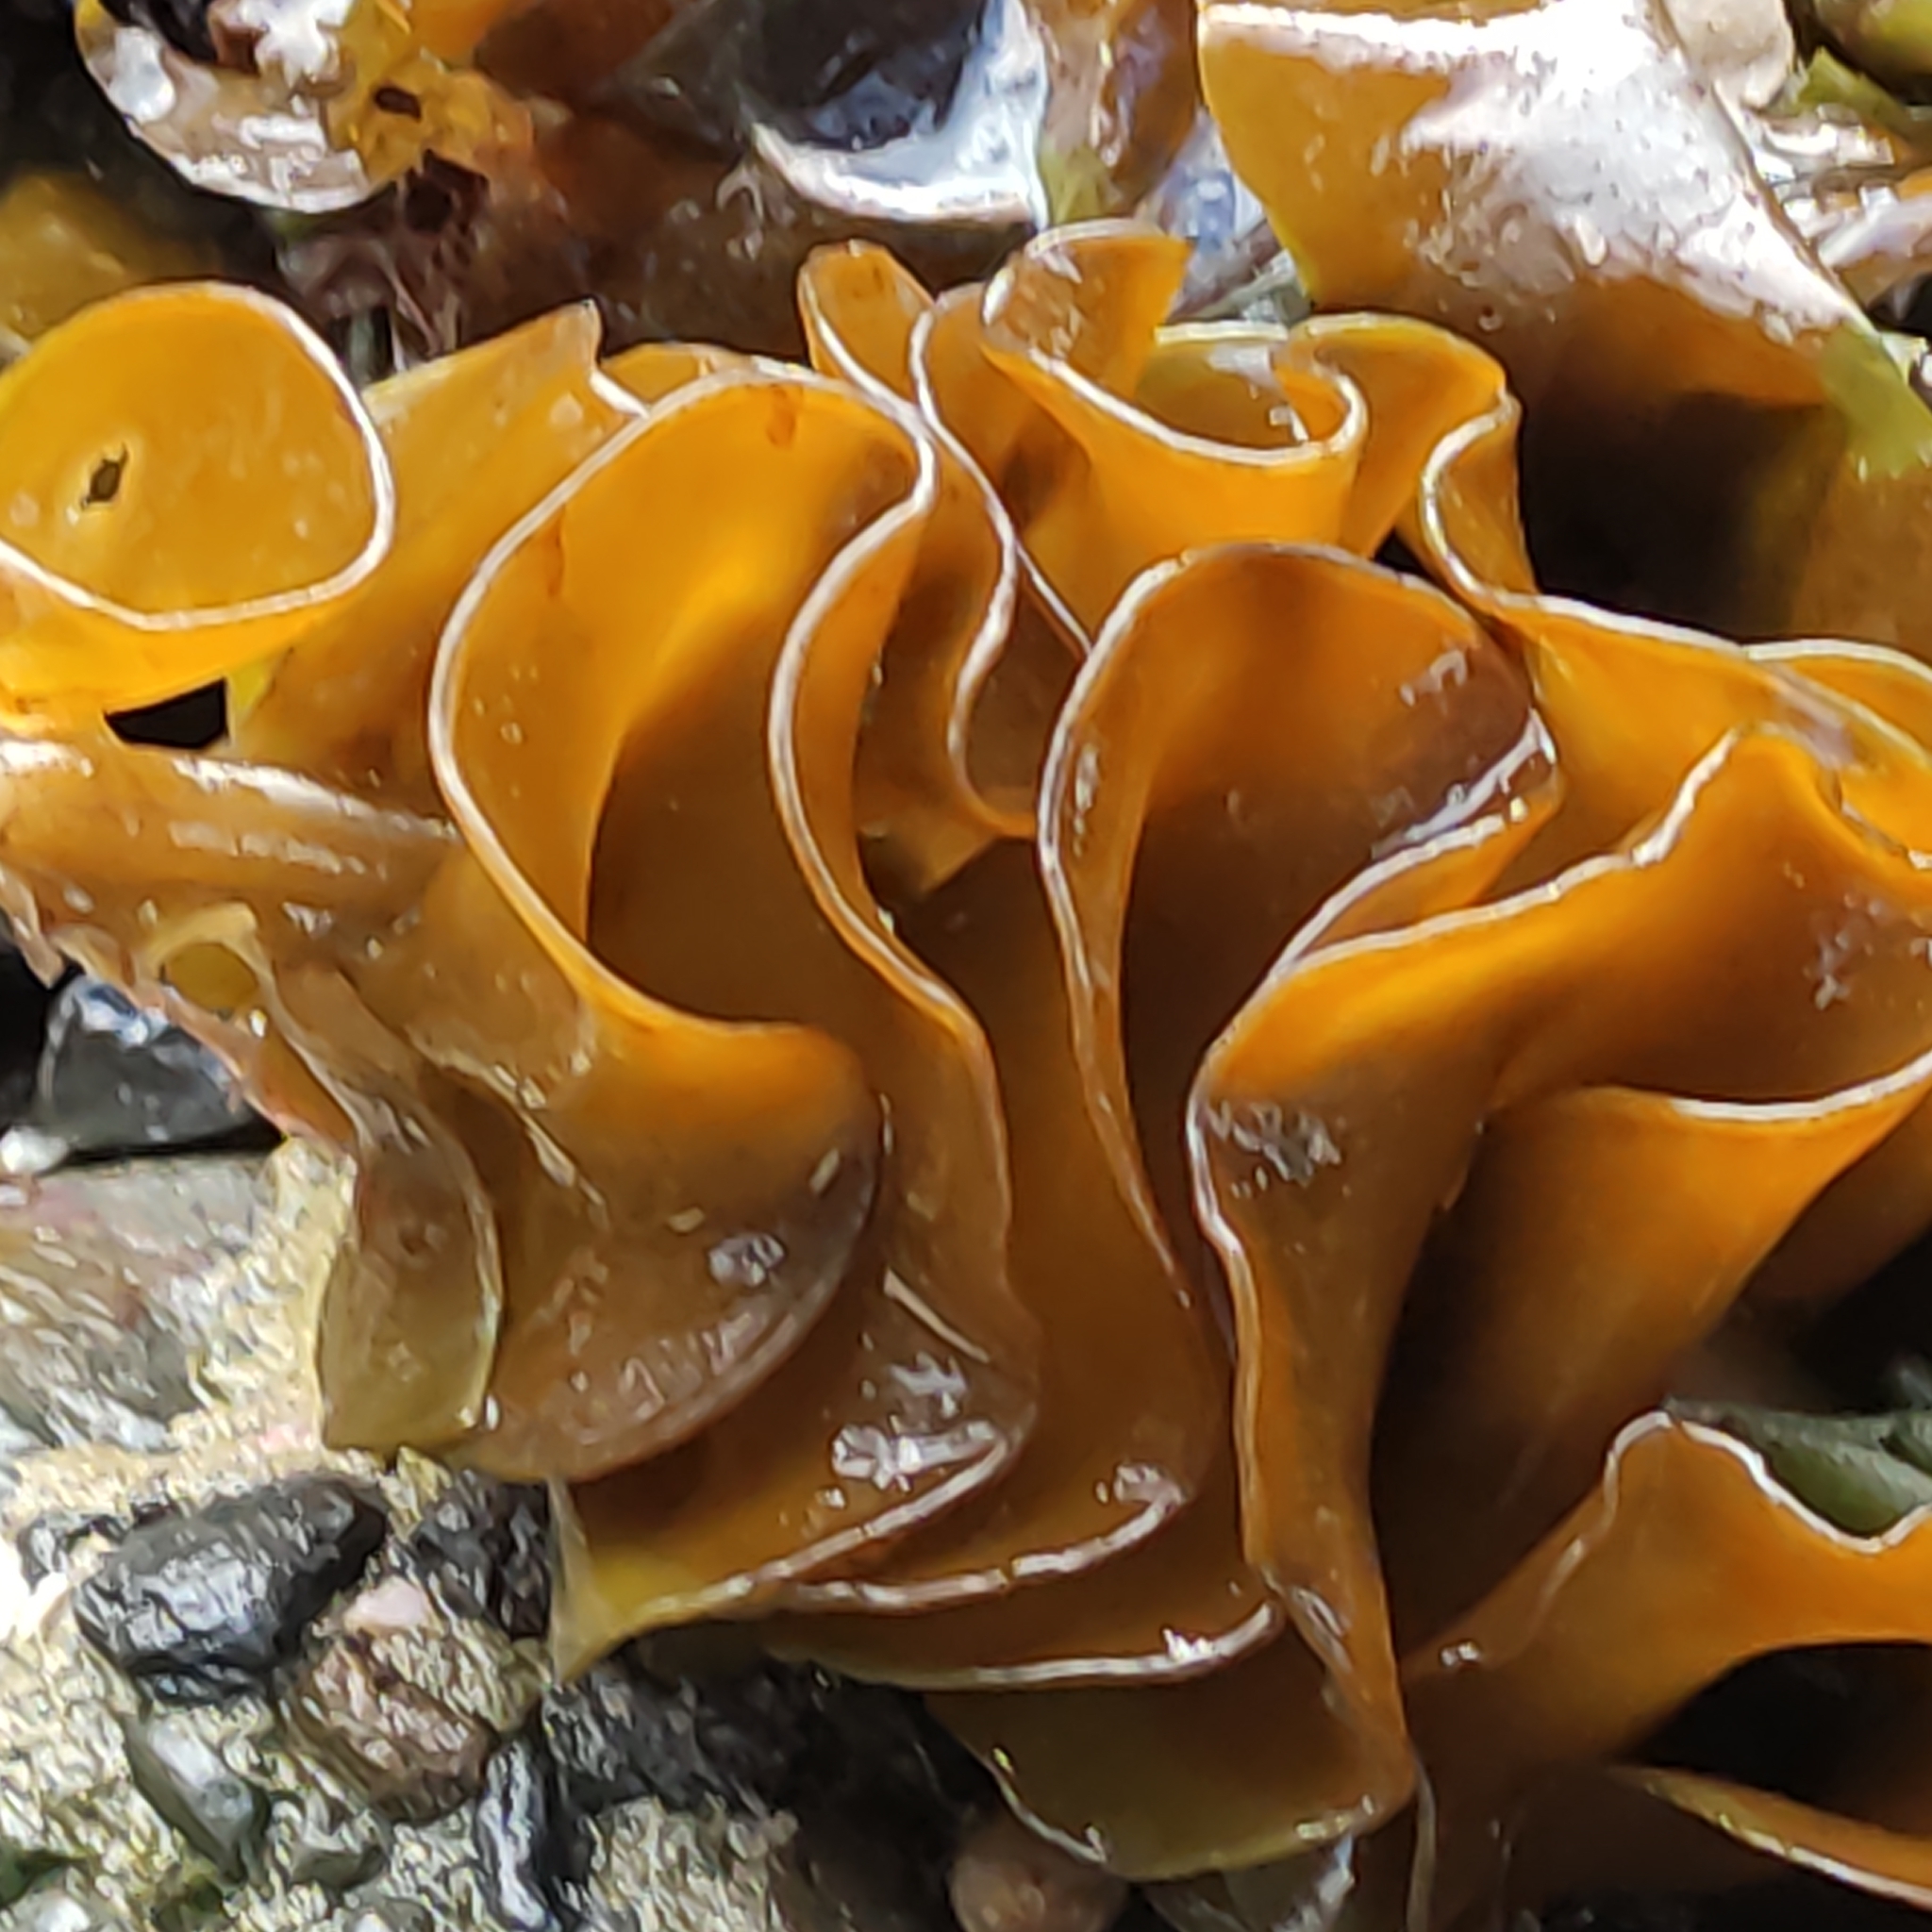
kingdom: Chromista
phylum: Ochrophyta
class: Phaeophyceae
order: Laminariales
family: Alariaceae
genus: Undaria
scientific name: Undaria pinnatifida
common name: Asian kelp
